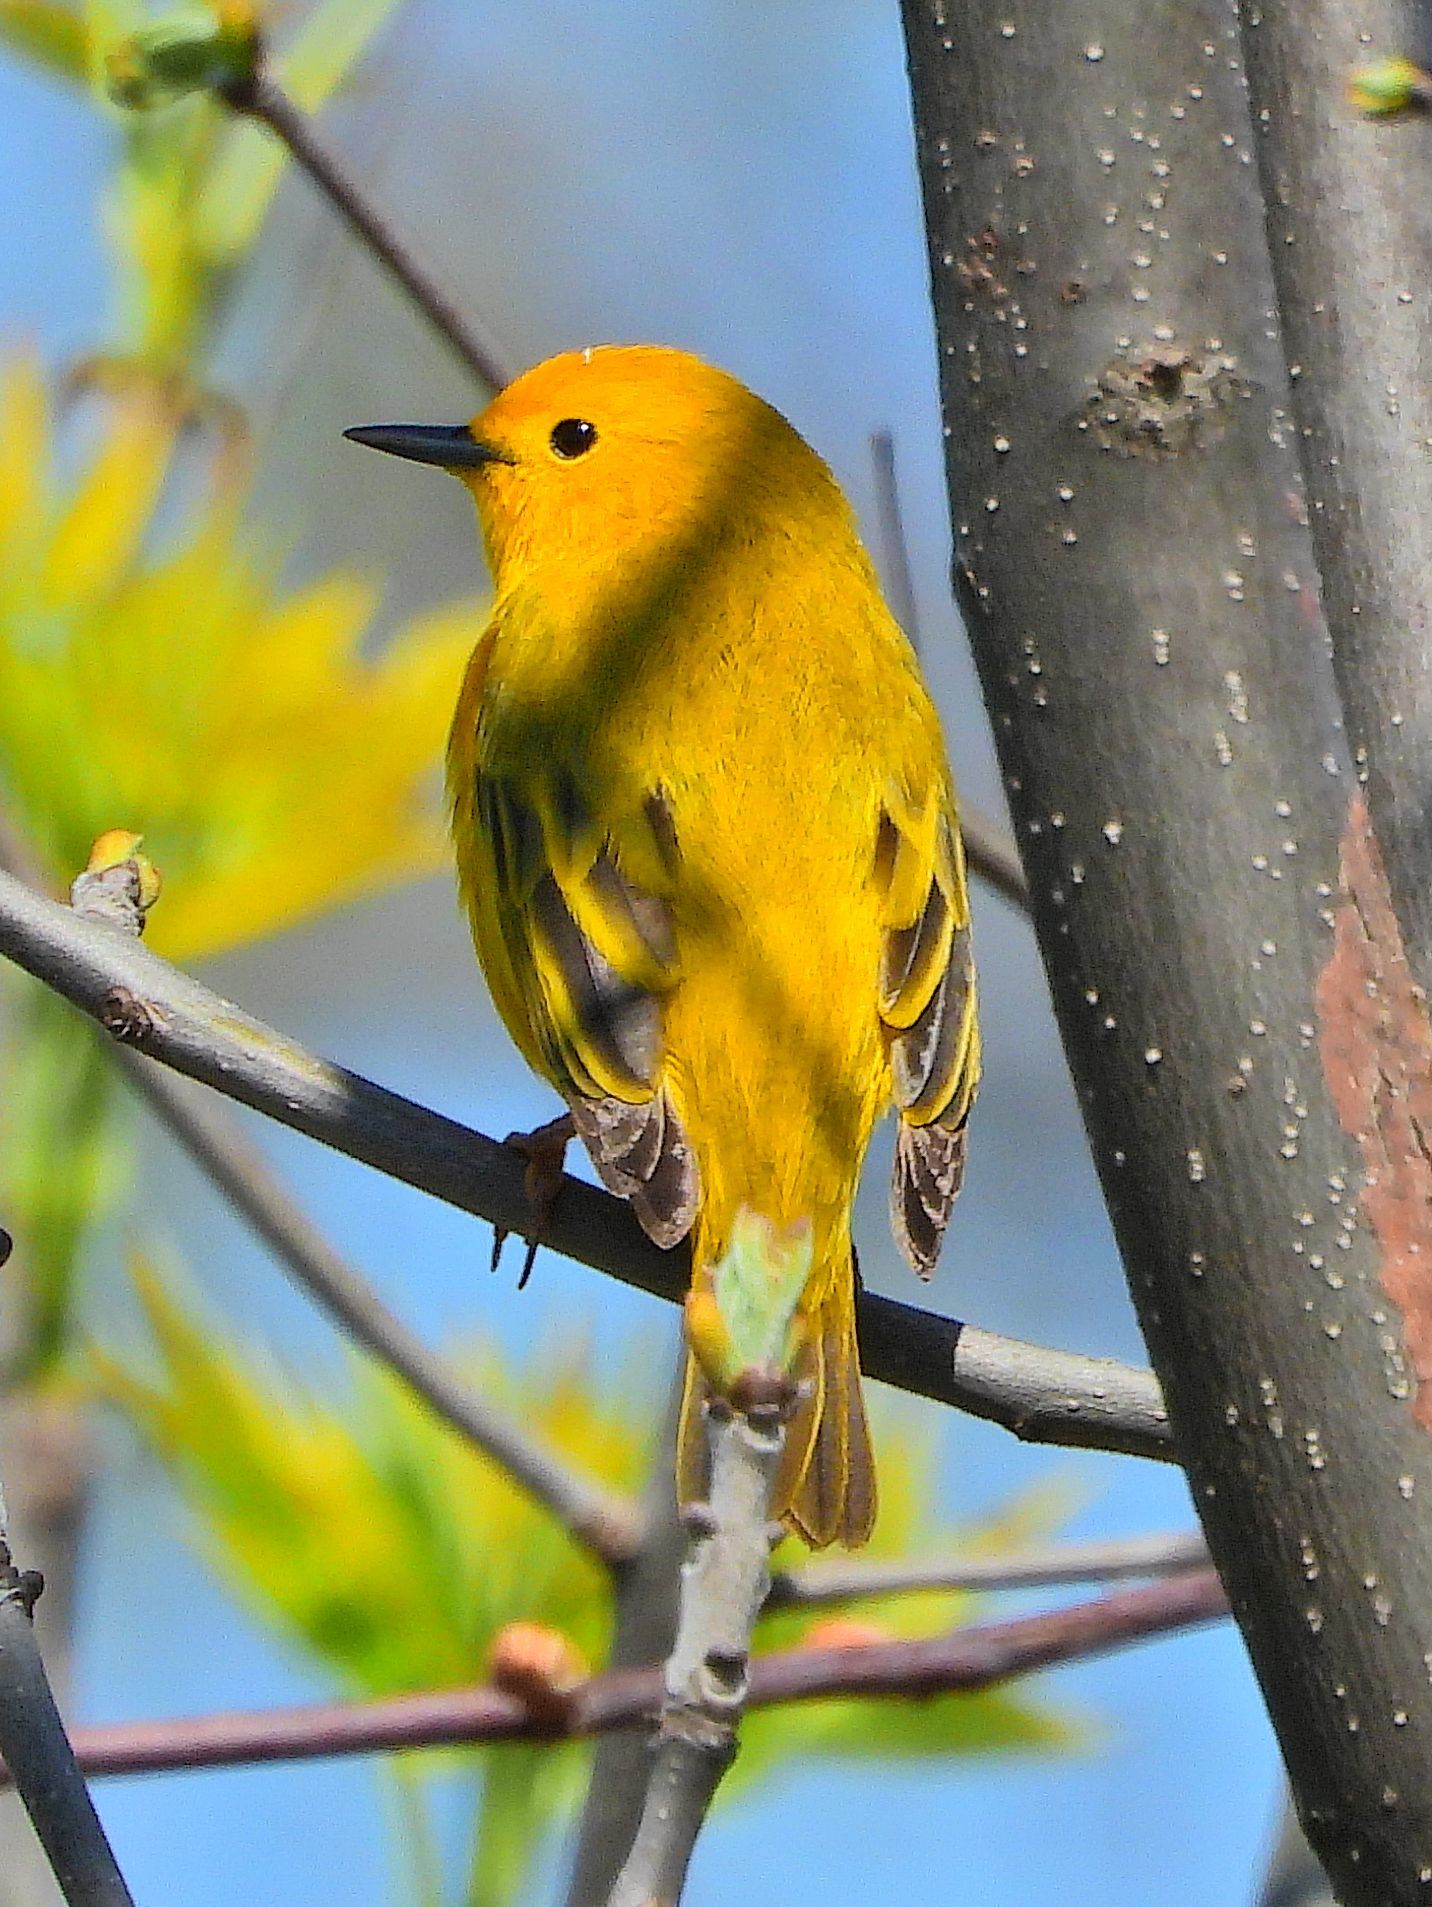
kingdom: Animalia
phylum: Chordata
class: Aves
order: Passeriformes
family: Parulidae
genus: Setophaga
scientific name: Setophaga petechia
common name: Yellow warbler
